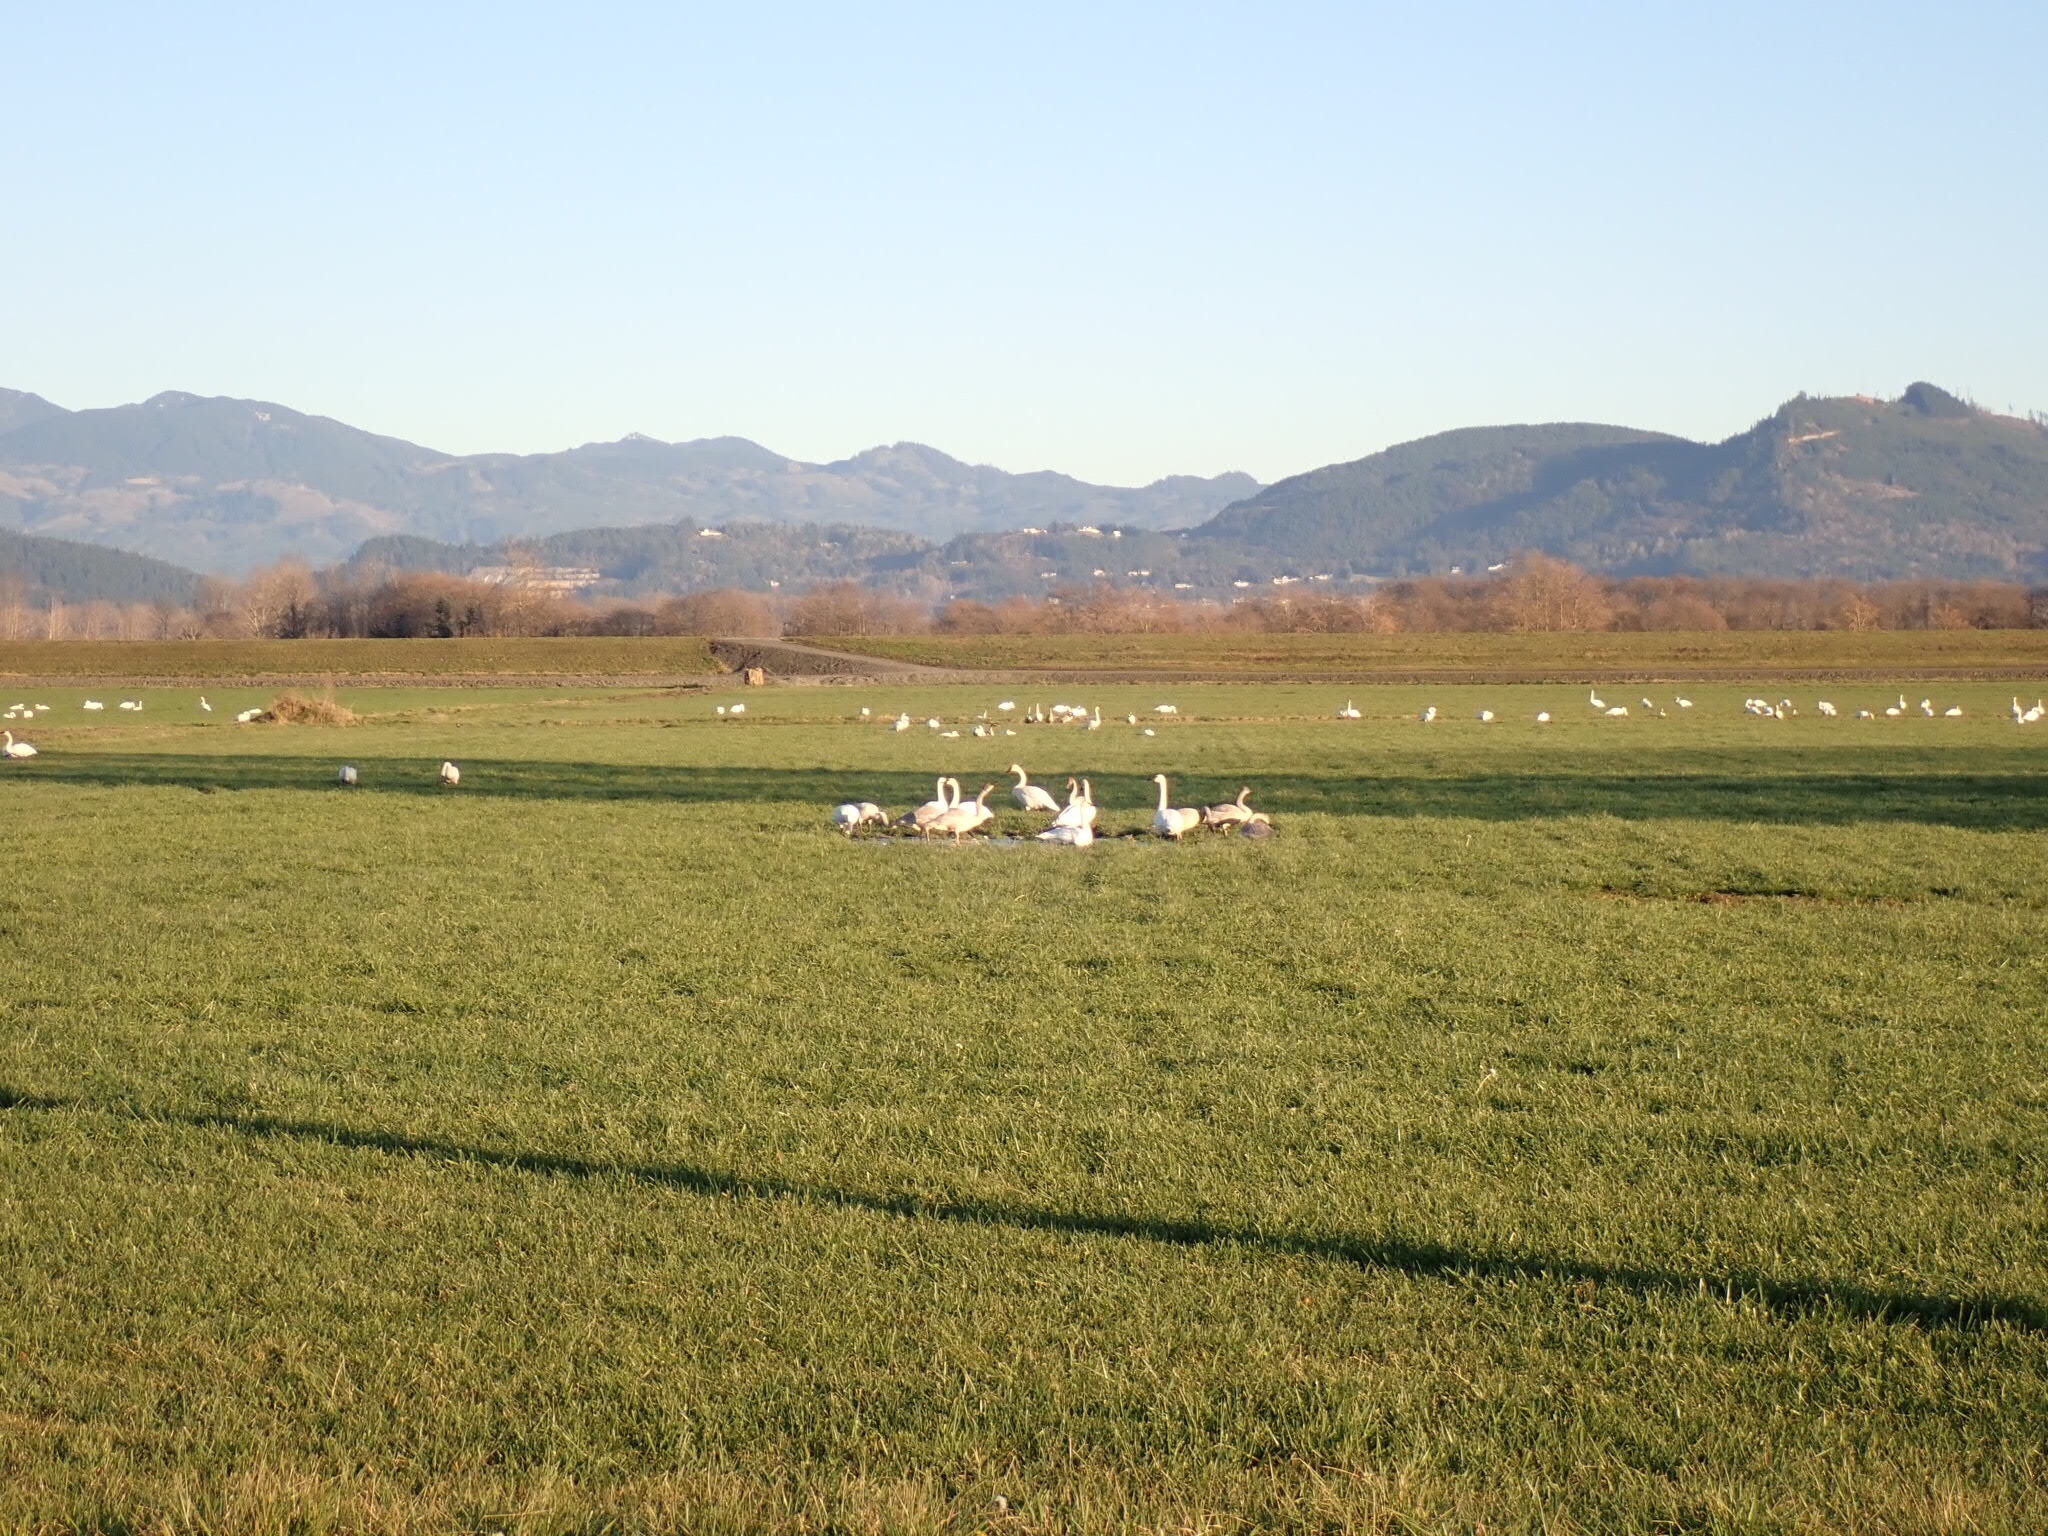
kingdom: Animalia
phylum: Chordata
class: Aves
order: Anseriformes
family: Anatidae
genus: Cygnus
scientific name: Cygnus columbianus
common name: Tundra swan
